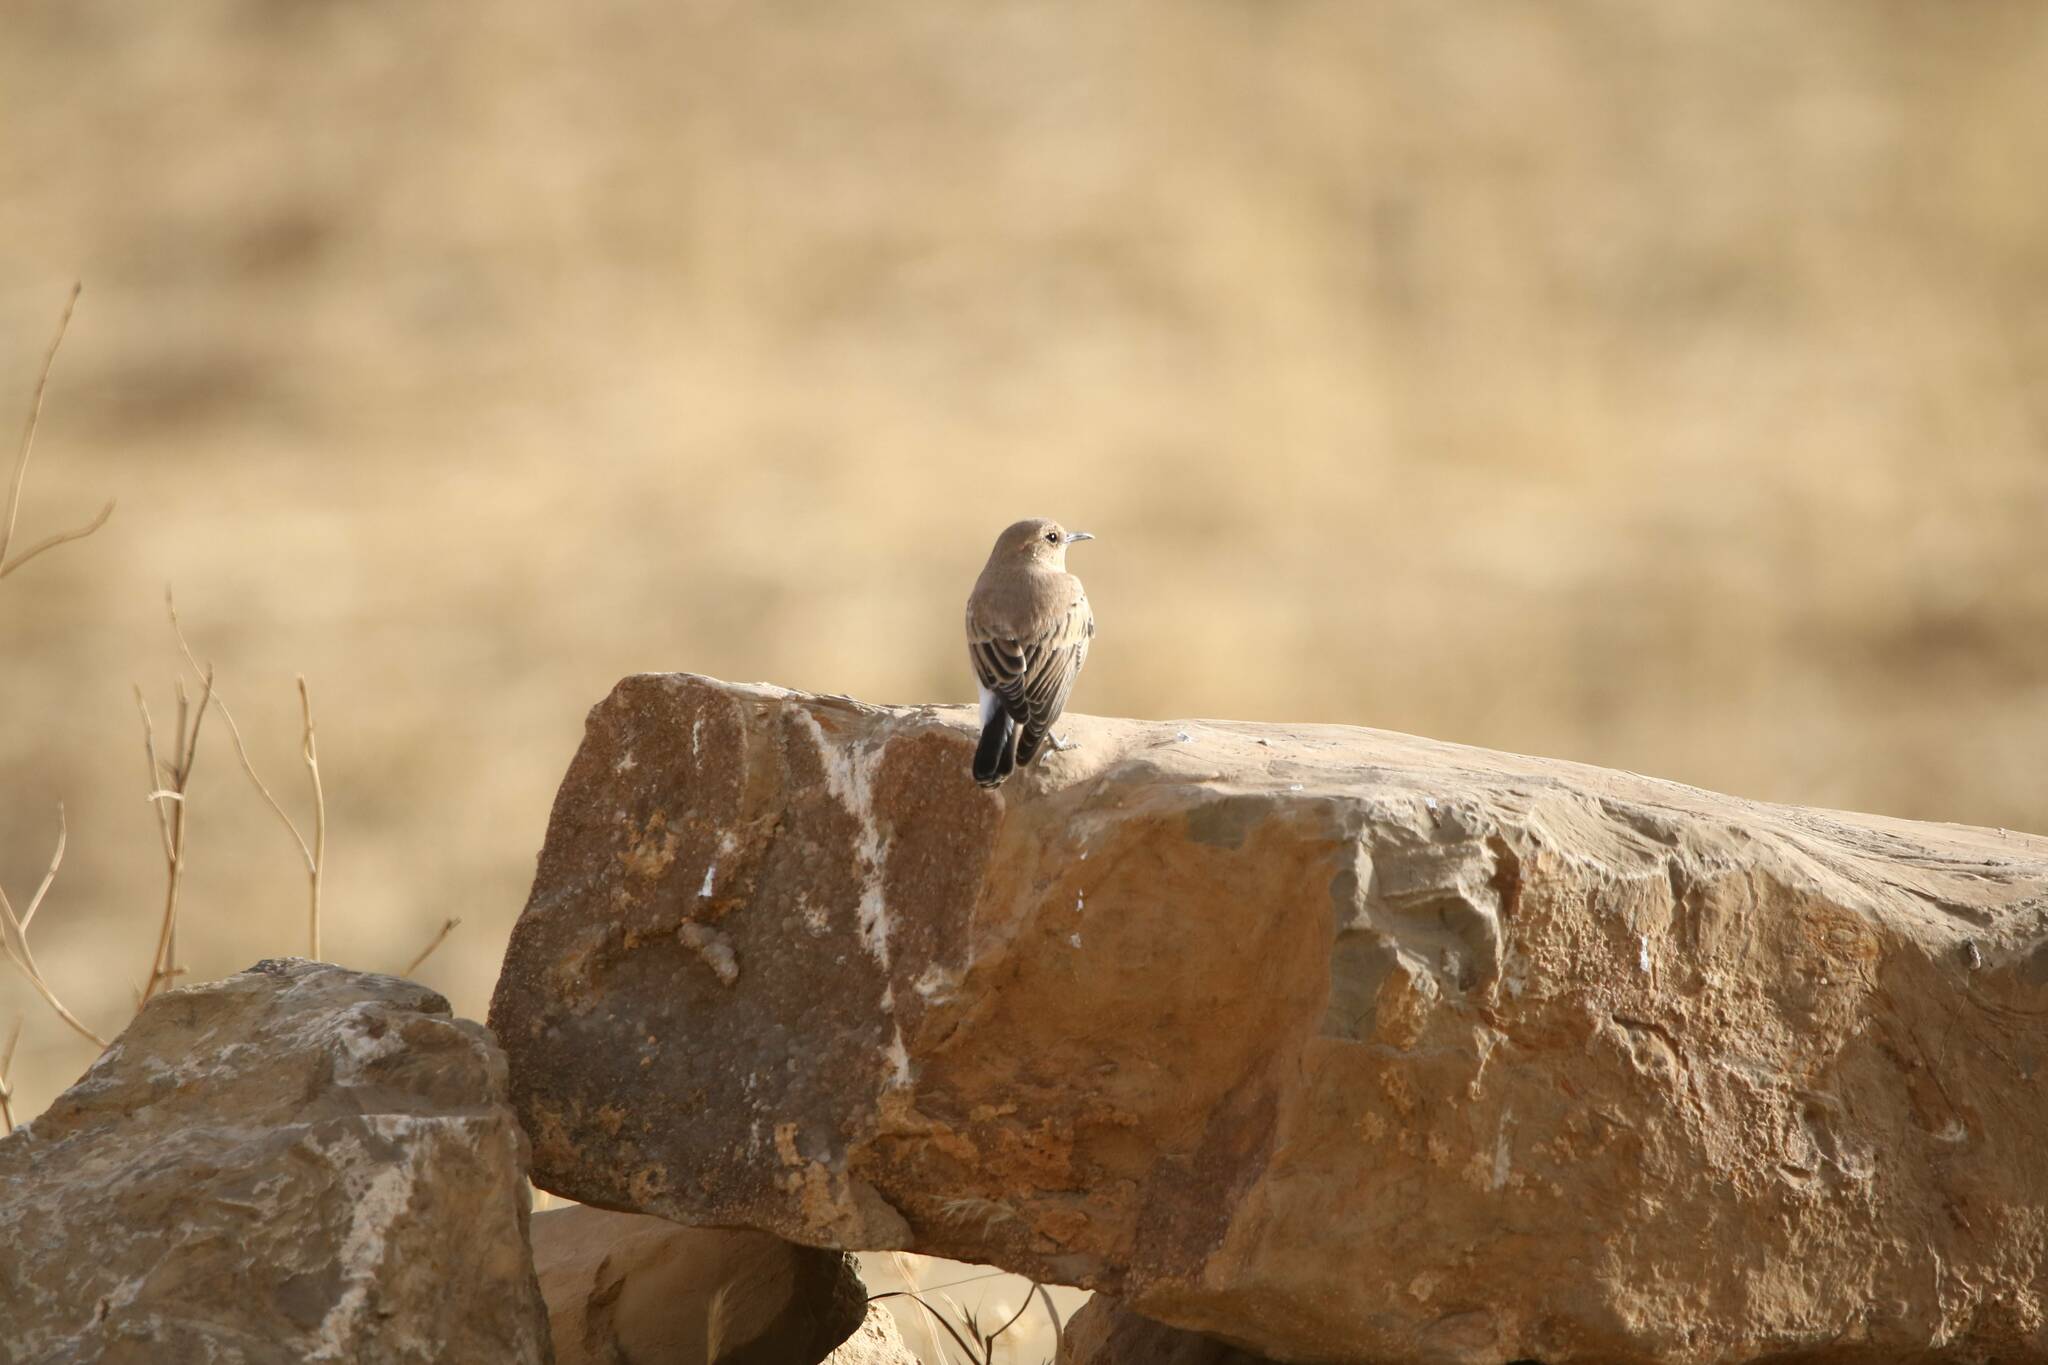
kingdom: Animalia
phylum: Chordata
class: Aves
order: Passeriformes
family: Muscicapidae
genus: Oenanthe
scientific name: Oenanthe hispanica
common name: Black-eared wheatear
